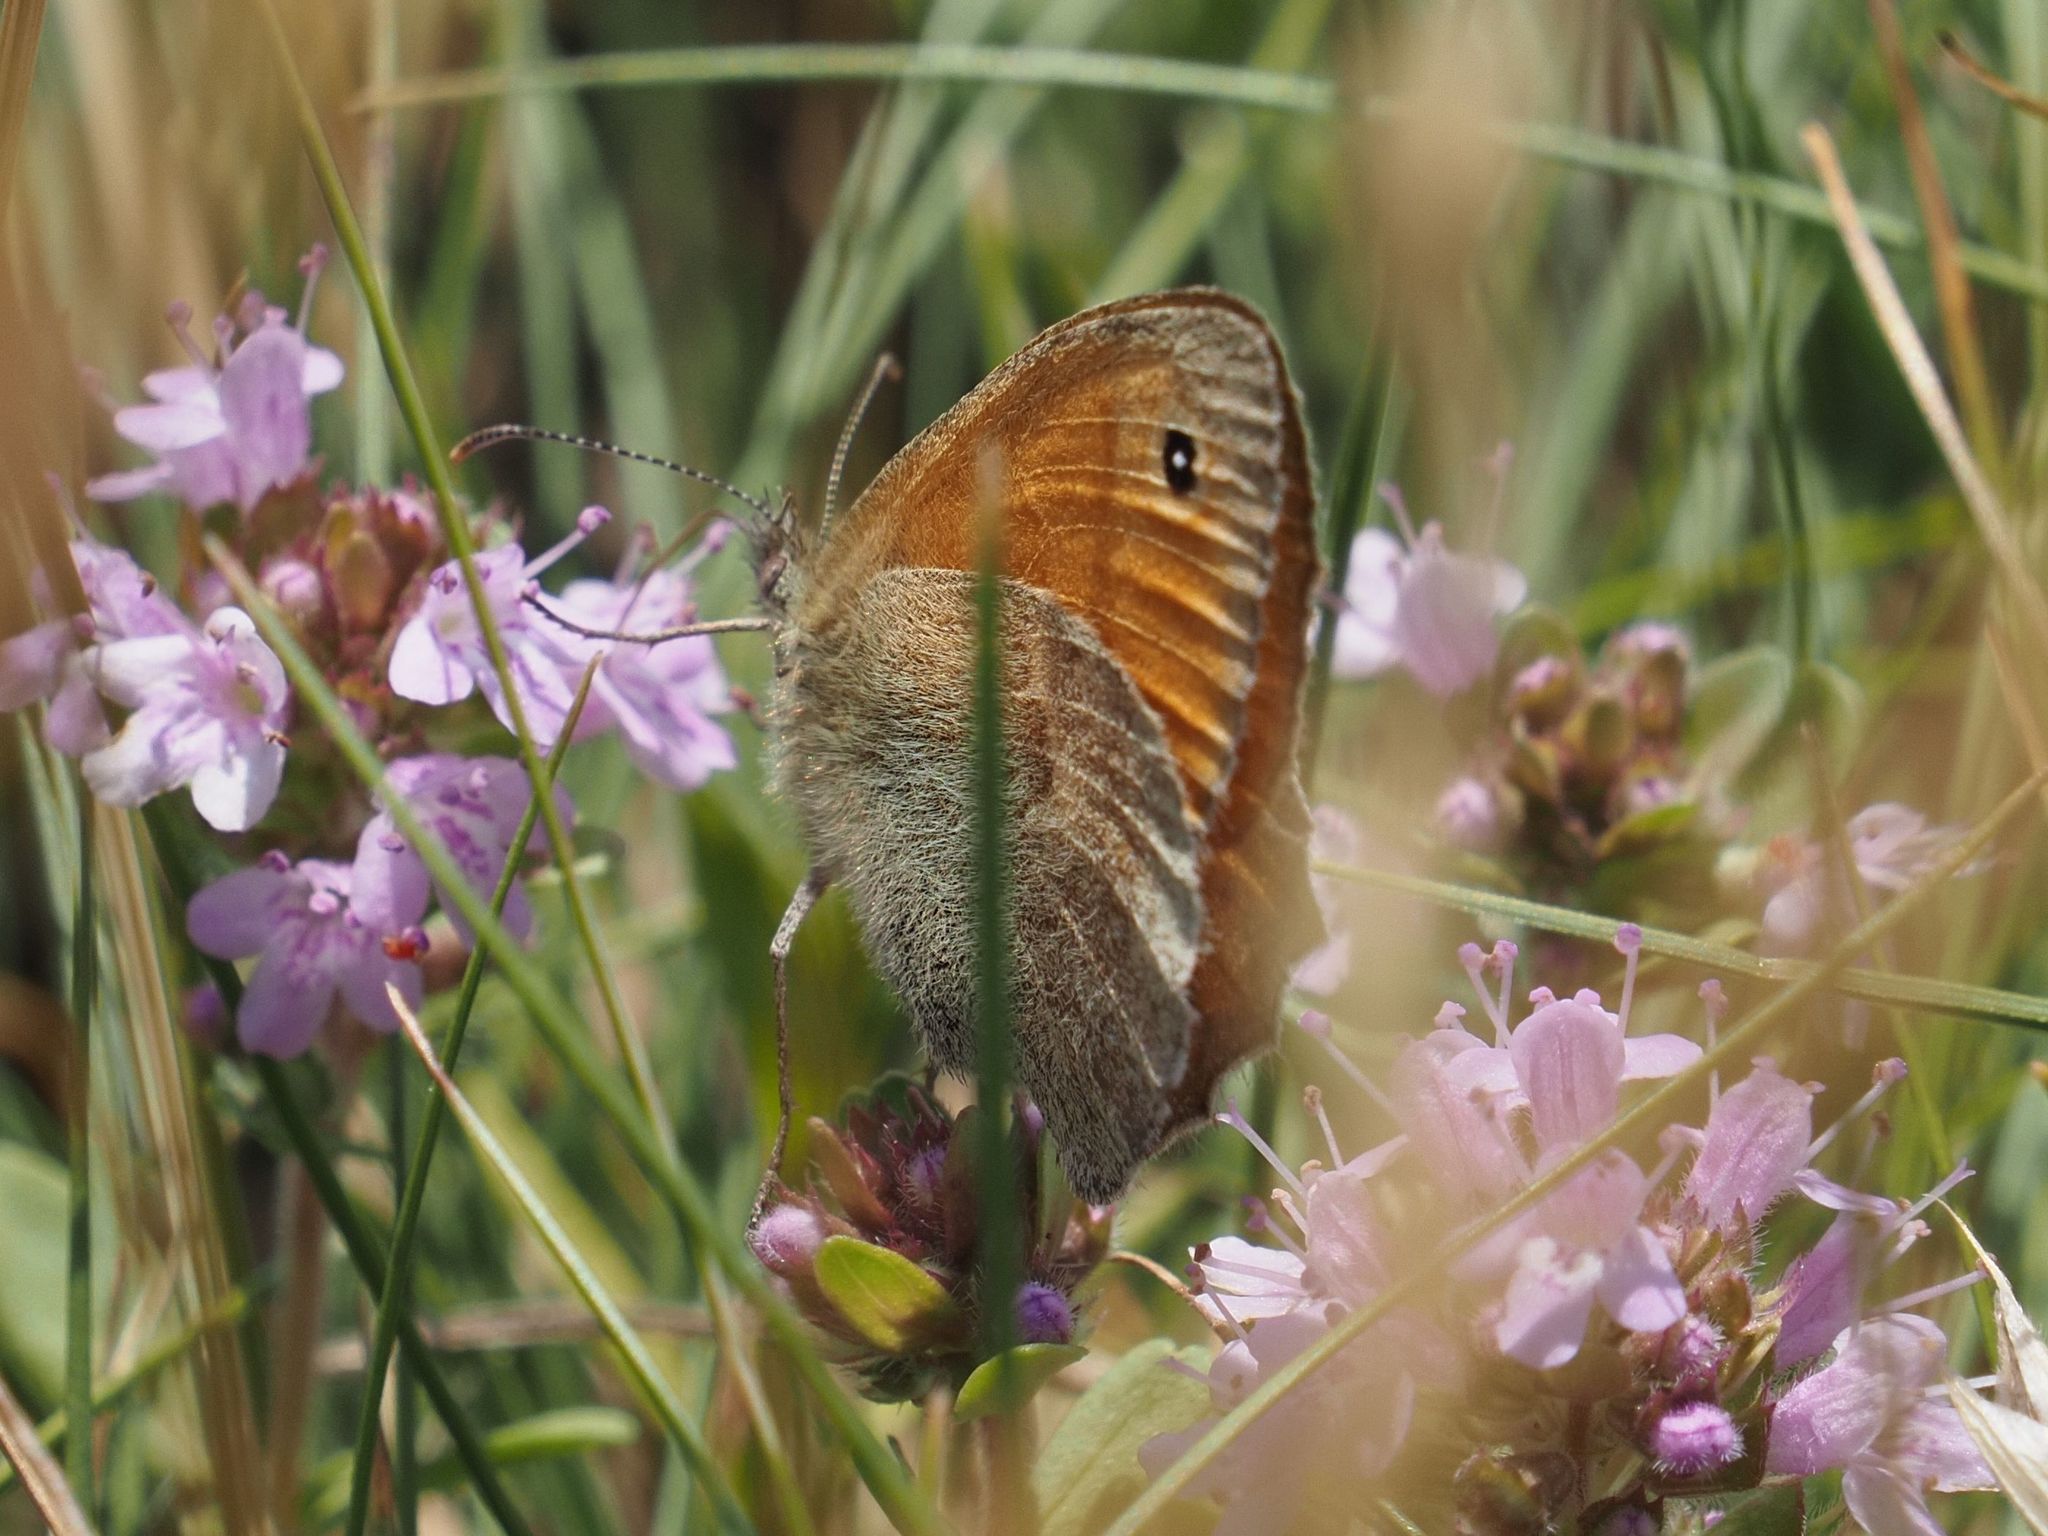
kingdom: Animalia
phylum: Arthropoda
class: Insecta
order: Lepidoptera
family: Nymphalidae
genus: Coenonympha
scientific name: Coenonympha pamphilus
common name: Small heath
